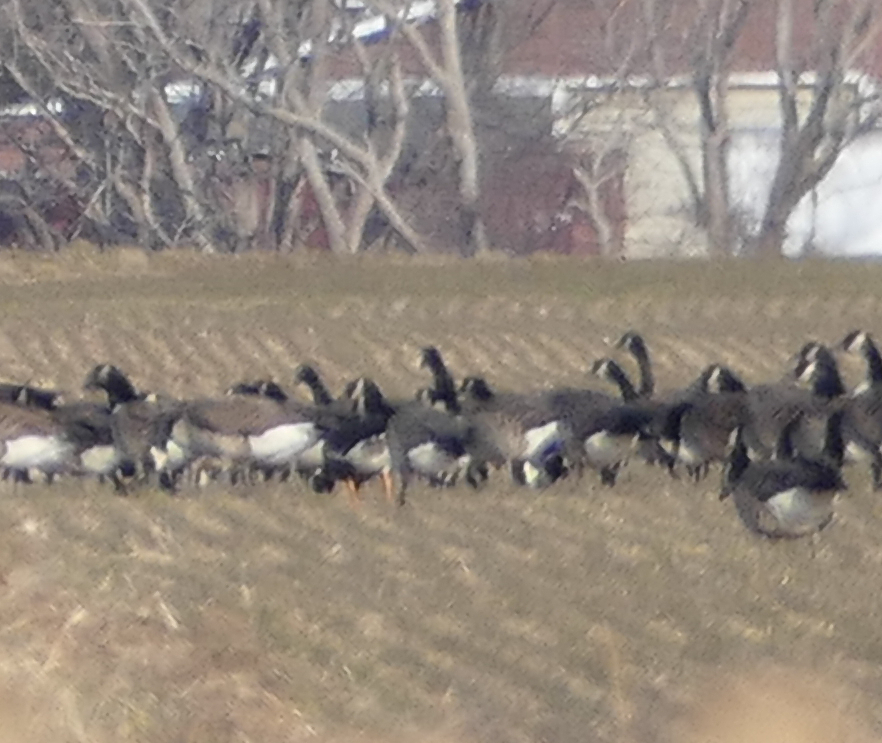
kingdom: Animalia
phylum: Chordata
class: Aves
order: Anseriformes
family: Anatidae
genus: Branta
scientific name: Branta canadensis
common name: Canada goose
